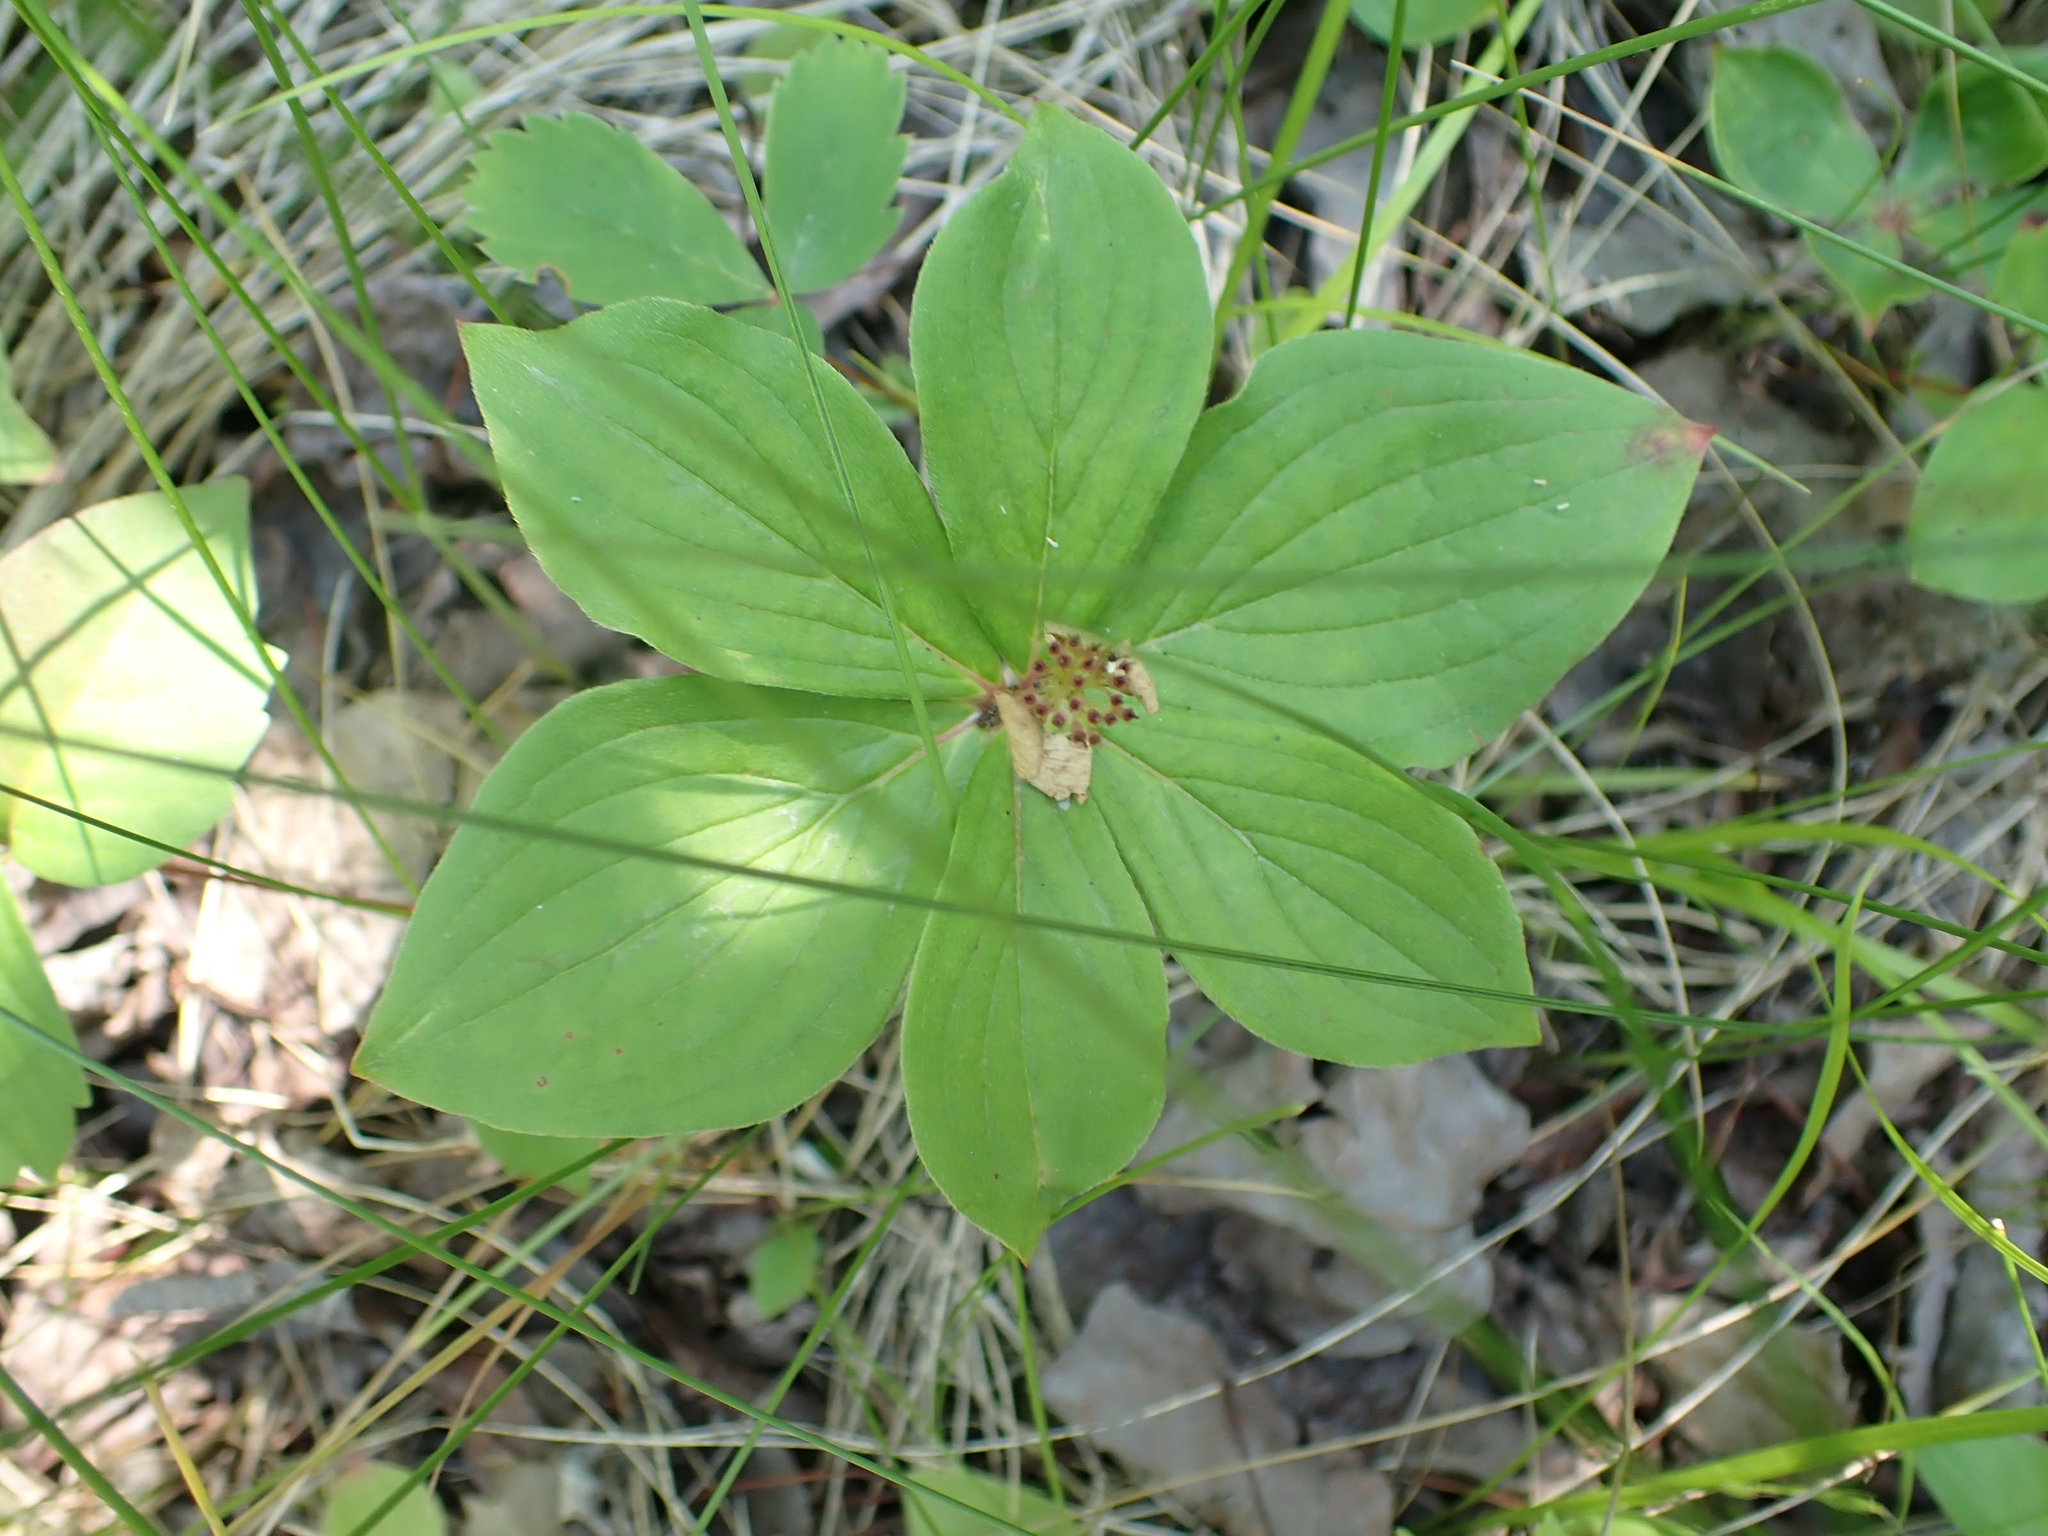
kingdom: Plantae
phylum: Tracheophyta
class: Magnoliopsida
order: Cornales
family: Cornaceae
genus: Cornus
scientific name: Cornus canadensis
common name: Creeping dogwood
